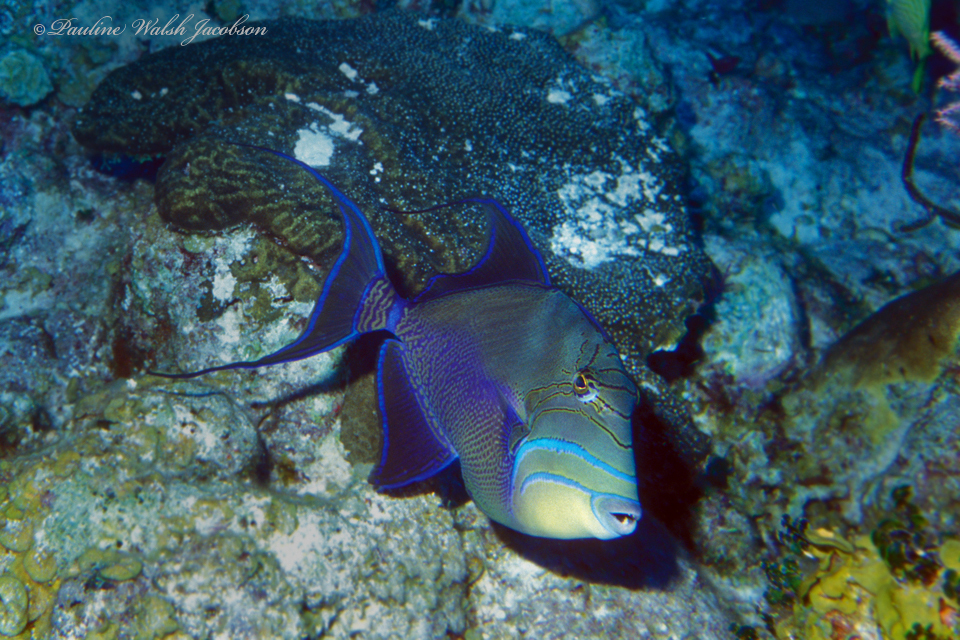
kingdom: Animalia
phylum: Chordata
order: Tetraodontiformes
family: Balistidae
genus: Balistes
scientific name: Balistes vetula
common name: Queen triggerfish
